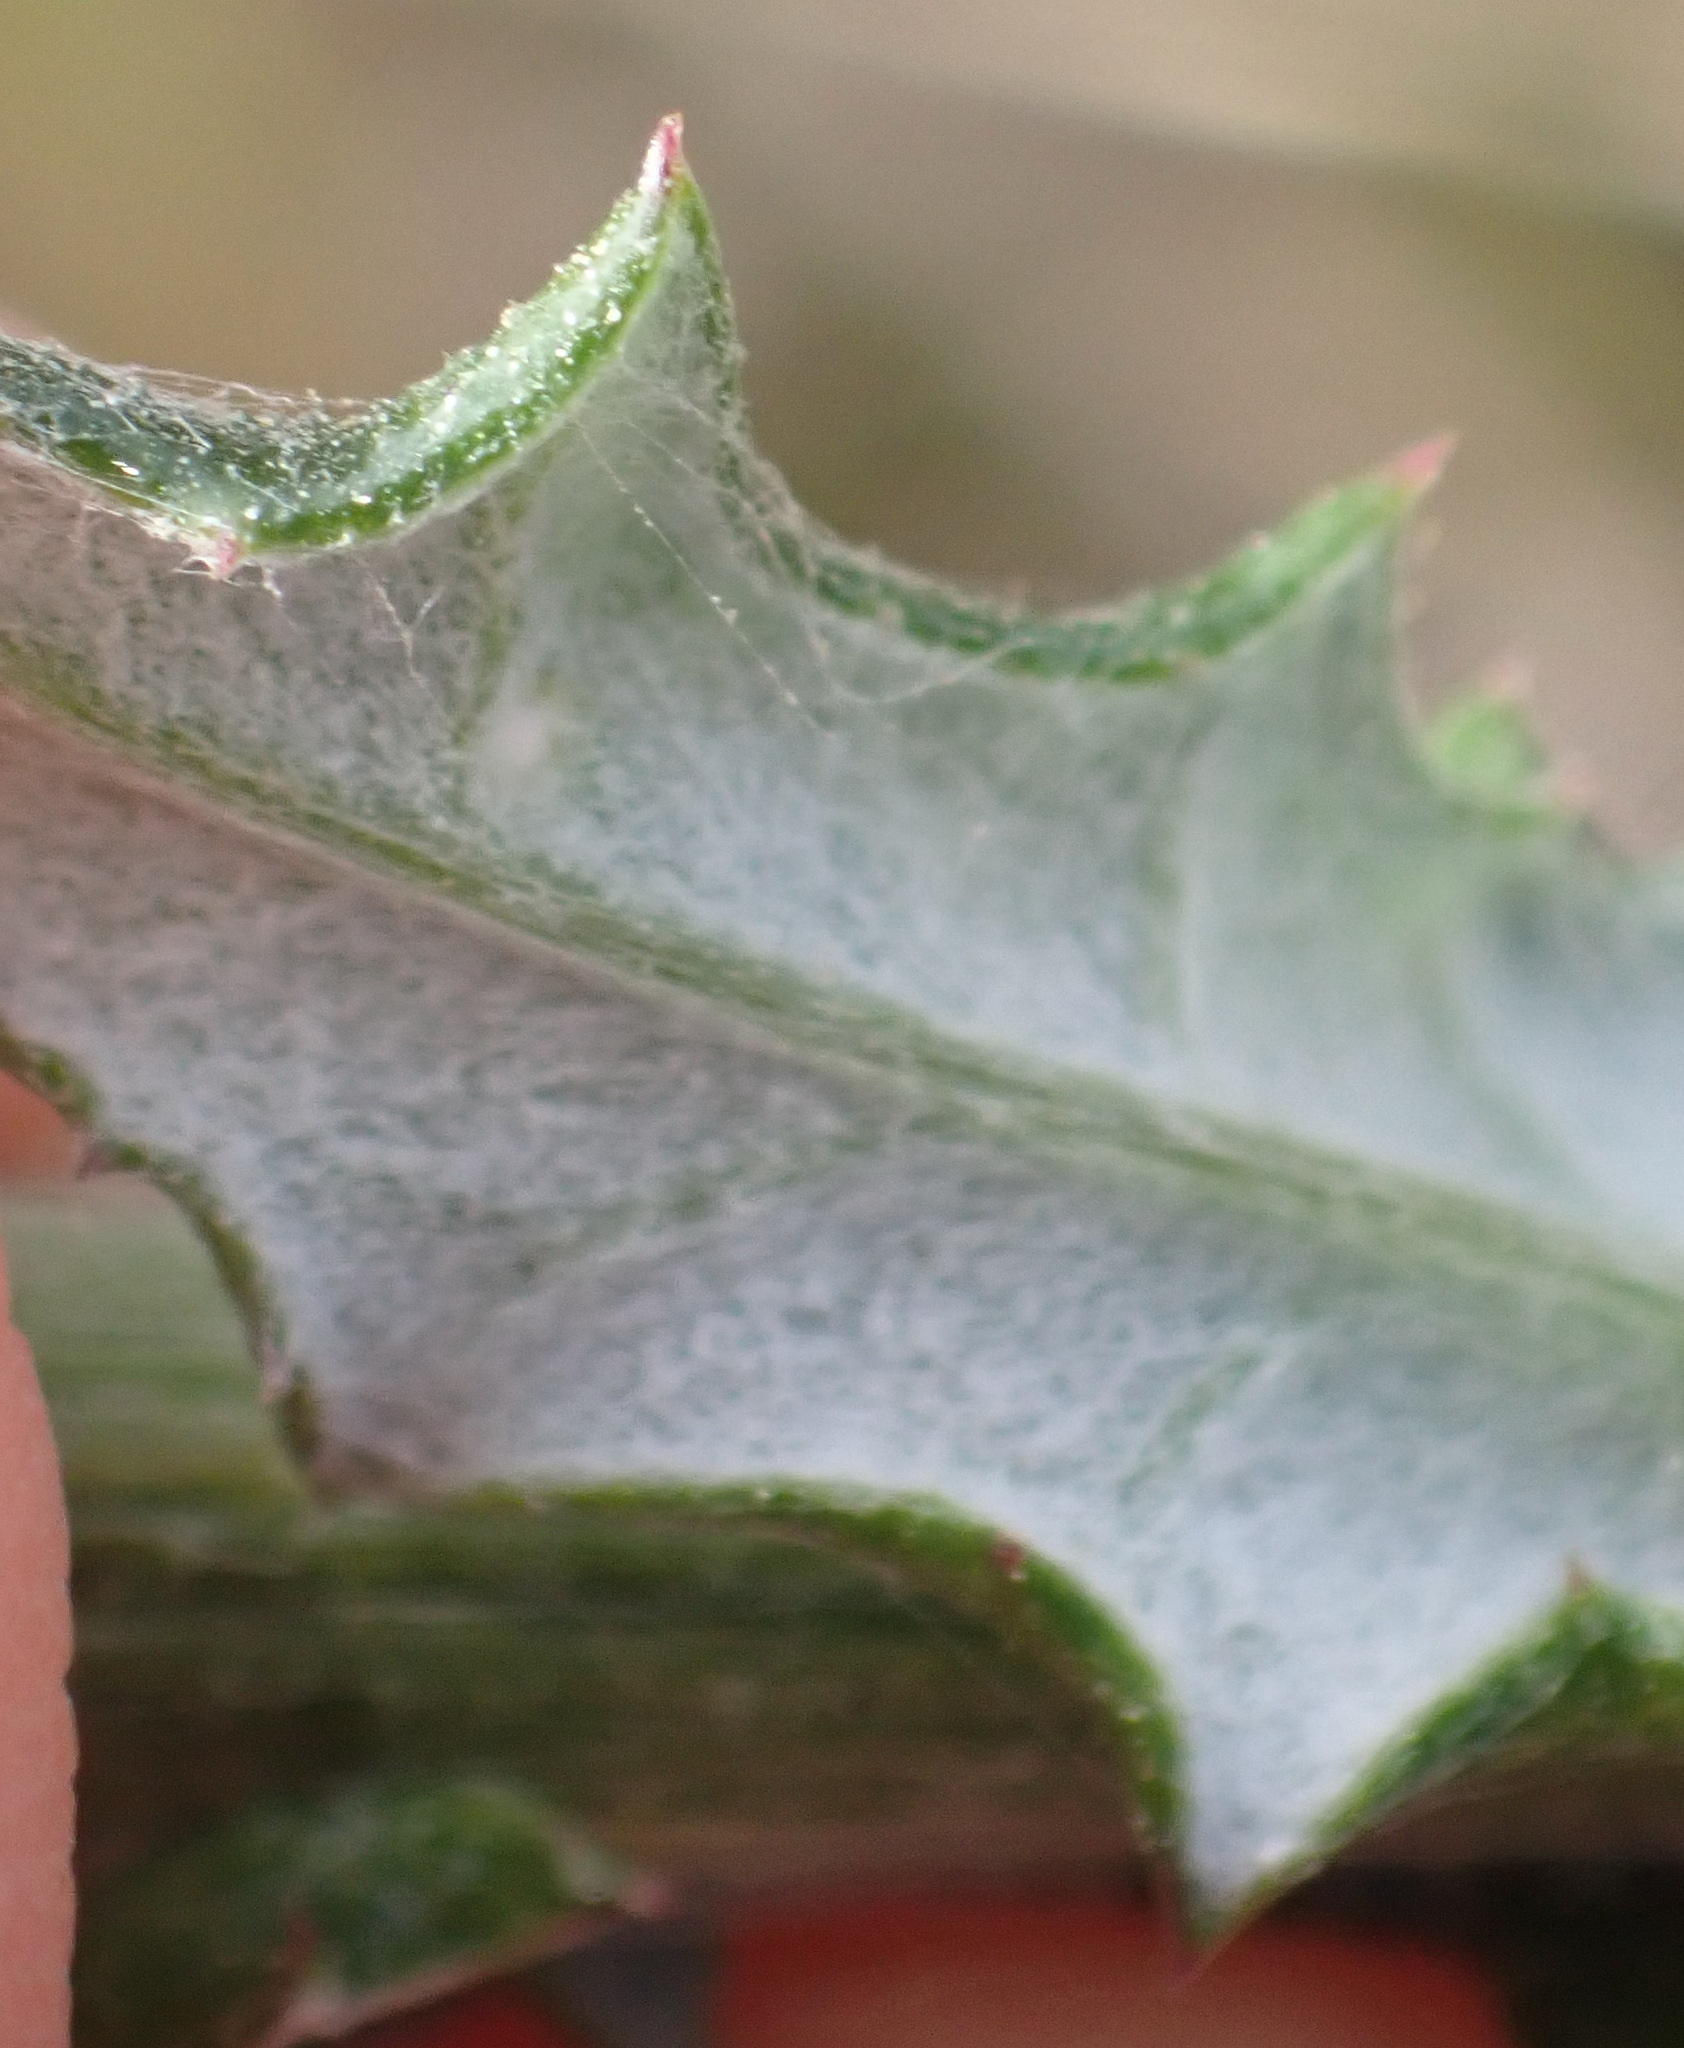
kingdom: Plantae
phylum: Tracheophyta
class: Magnoliopsida
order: Asterales
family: Asteraceae
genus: Senecio
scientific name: Senecio ilicifolius
